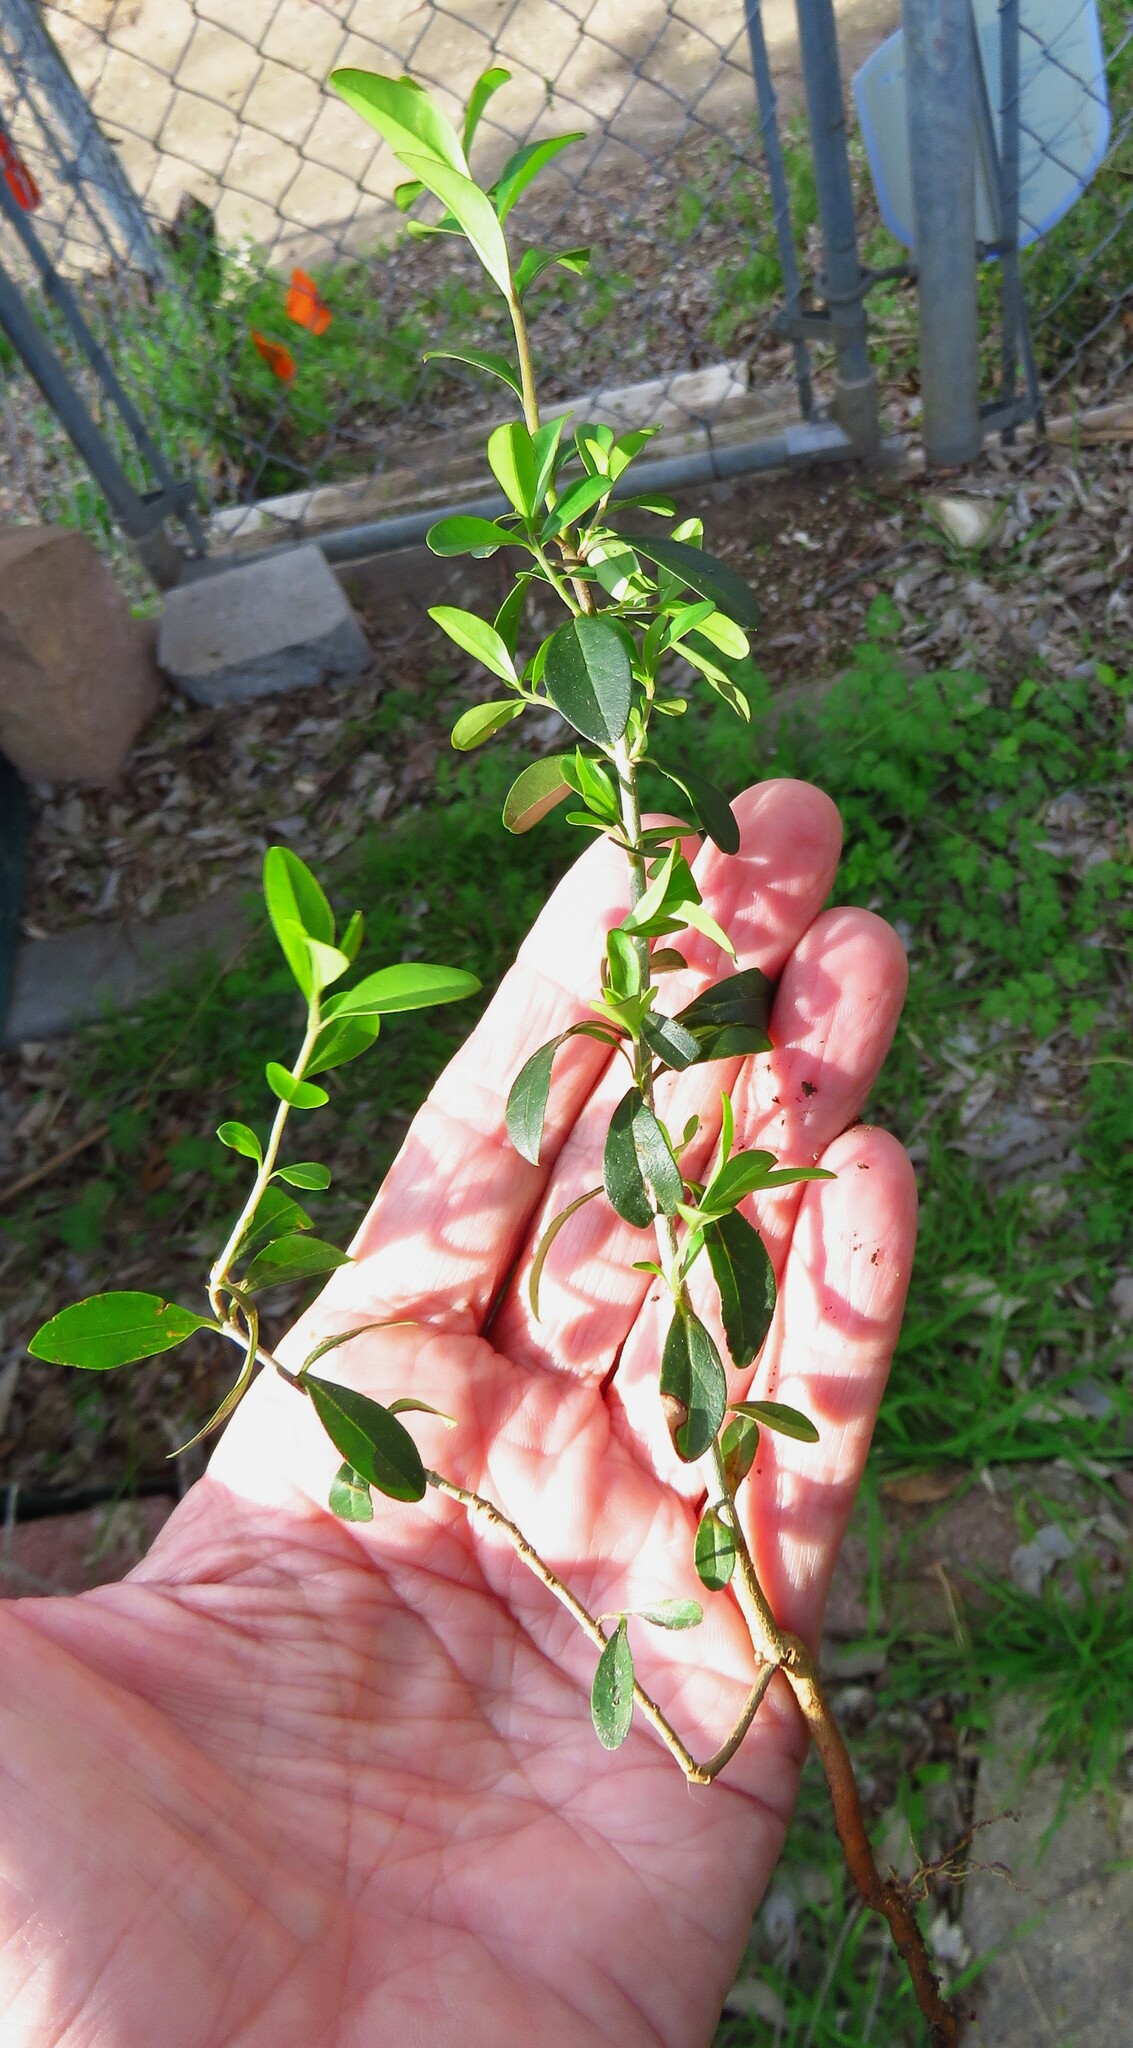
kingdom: Plantae
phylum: Tracheophyta
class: Magnoliopsida
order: Lamiales
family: Oleaceae
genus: Ligustrum
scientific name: Ligustrum quihoui
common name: Waxyleaf privet
